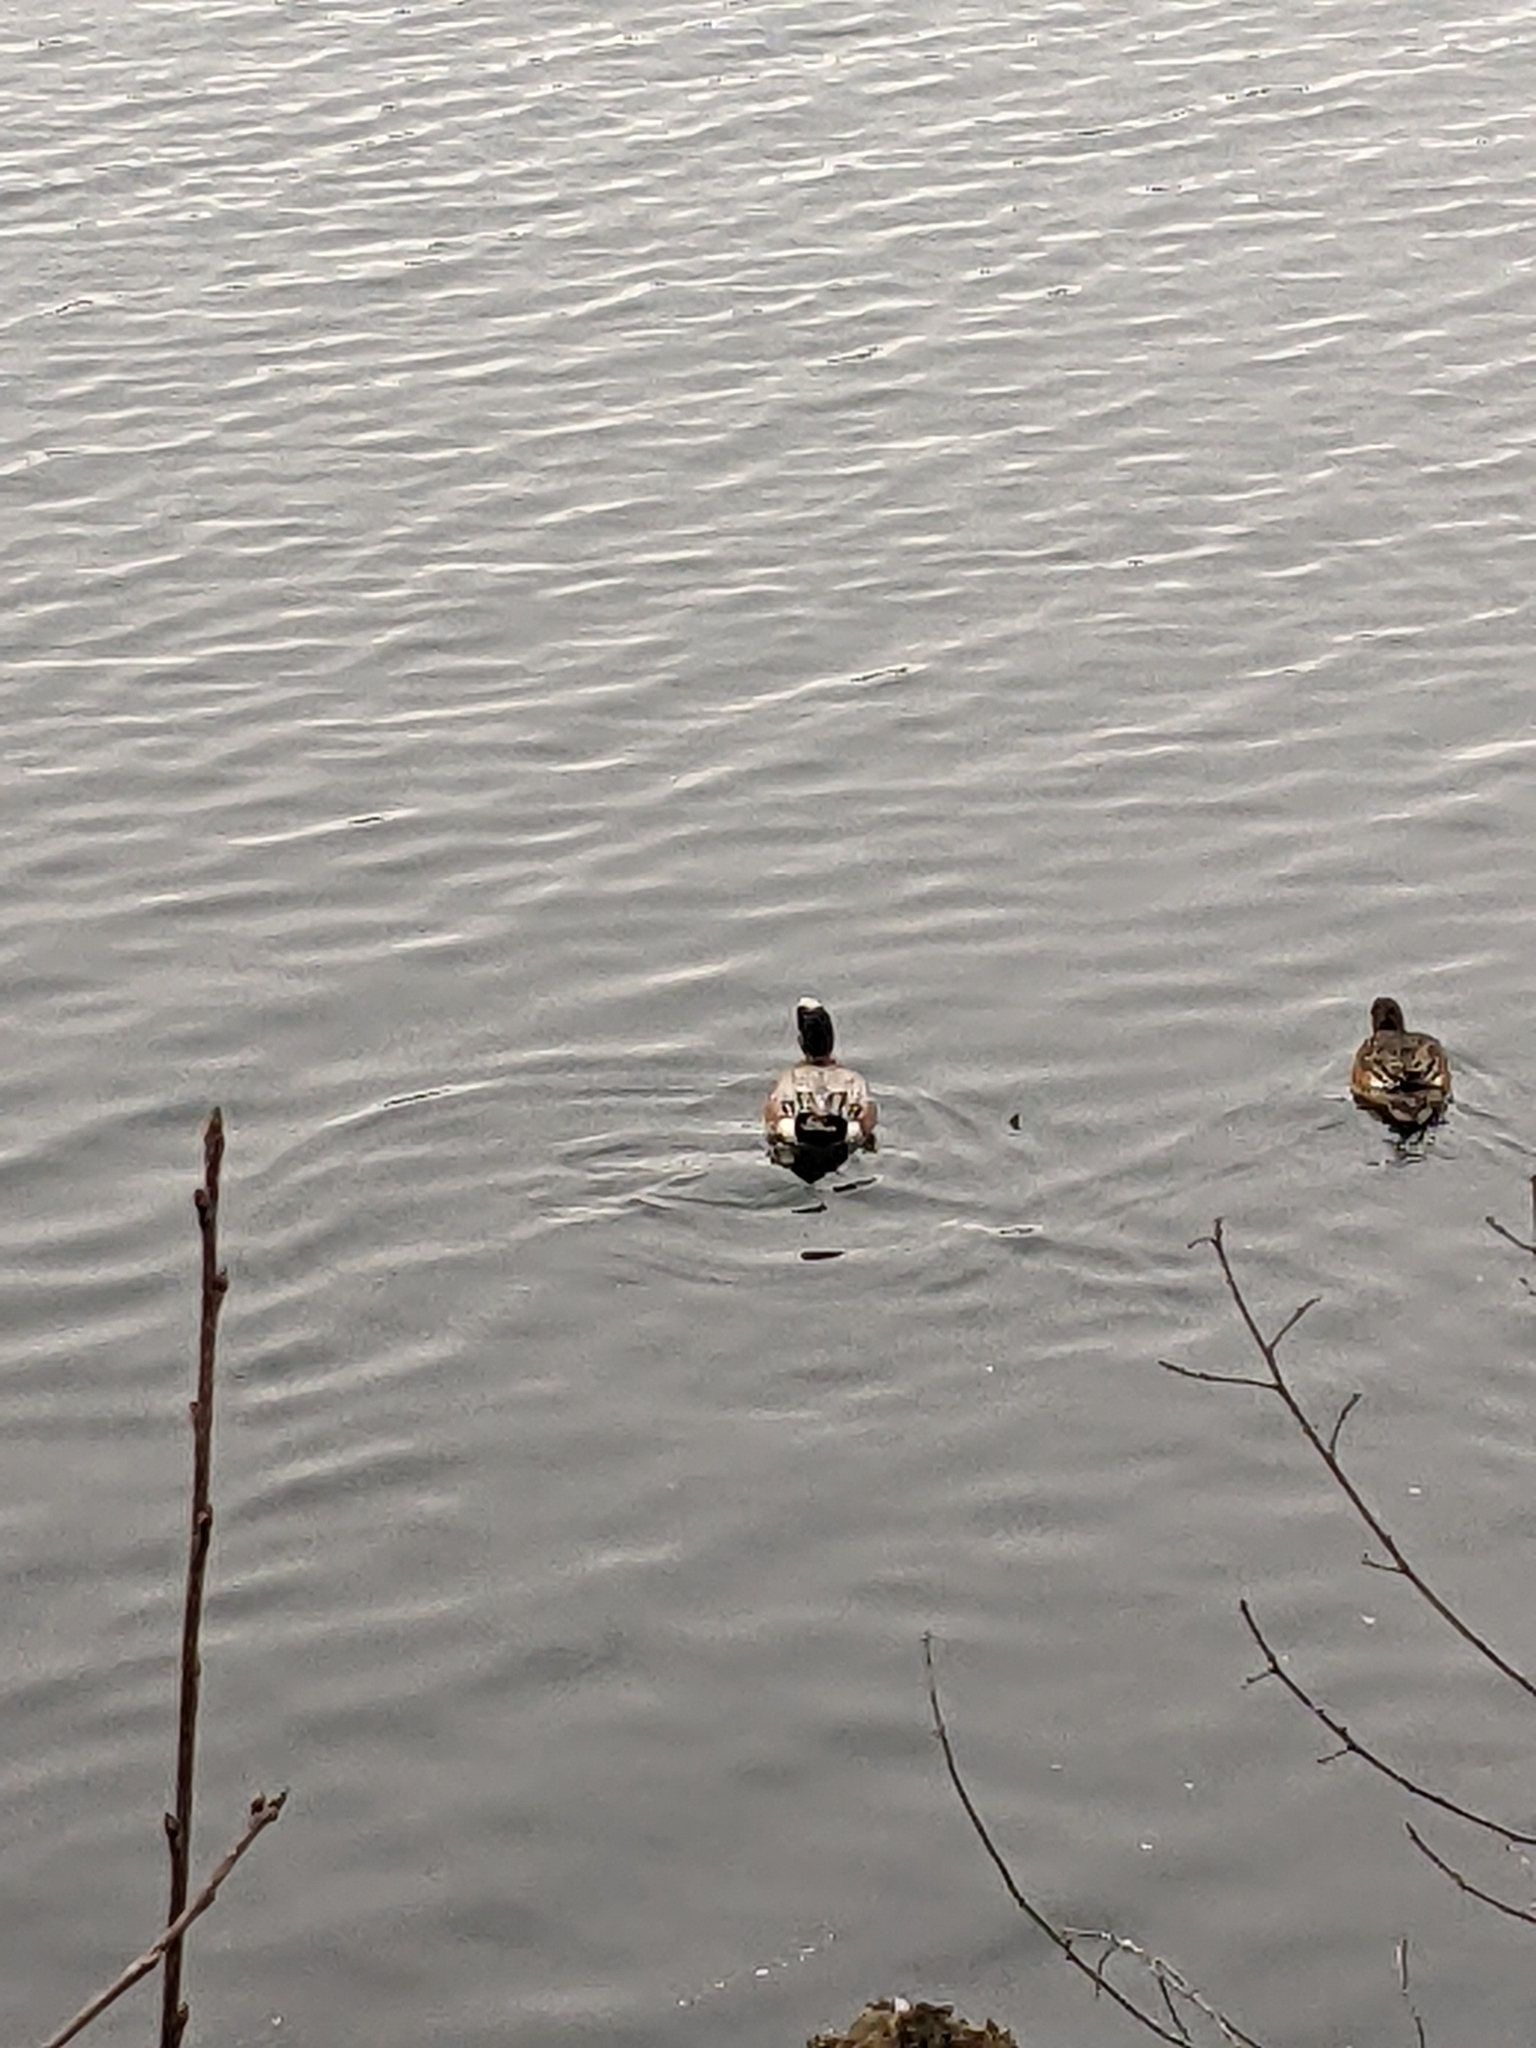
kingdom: Animalia
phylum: Chordata
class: Aves
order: Anseriformes
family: Anatidae
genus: Mareca
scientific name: Mareca americana
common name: American wigeon
